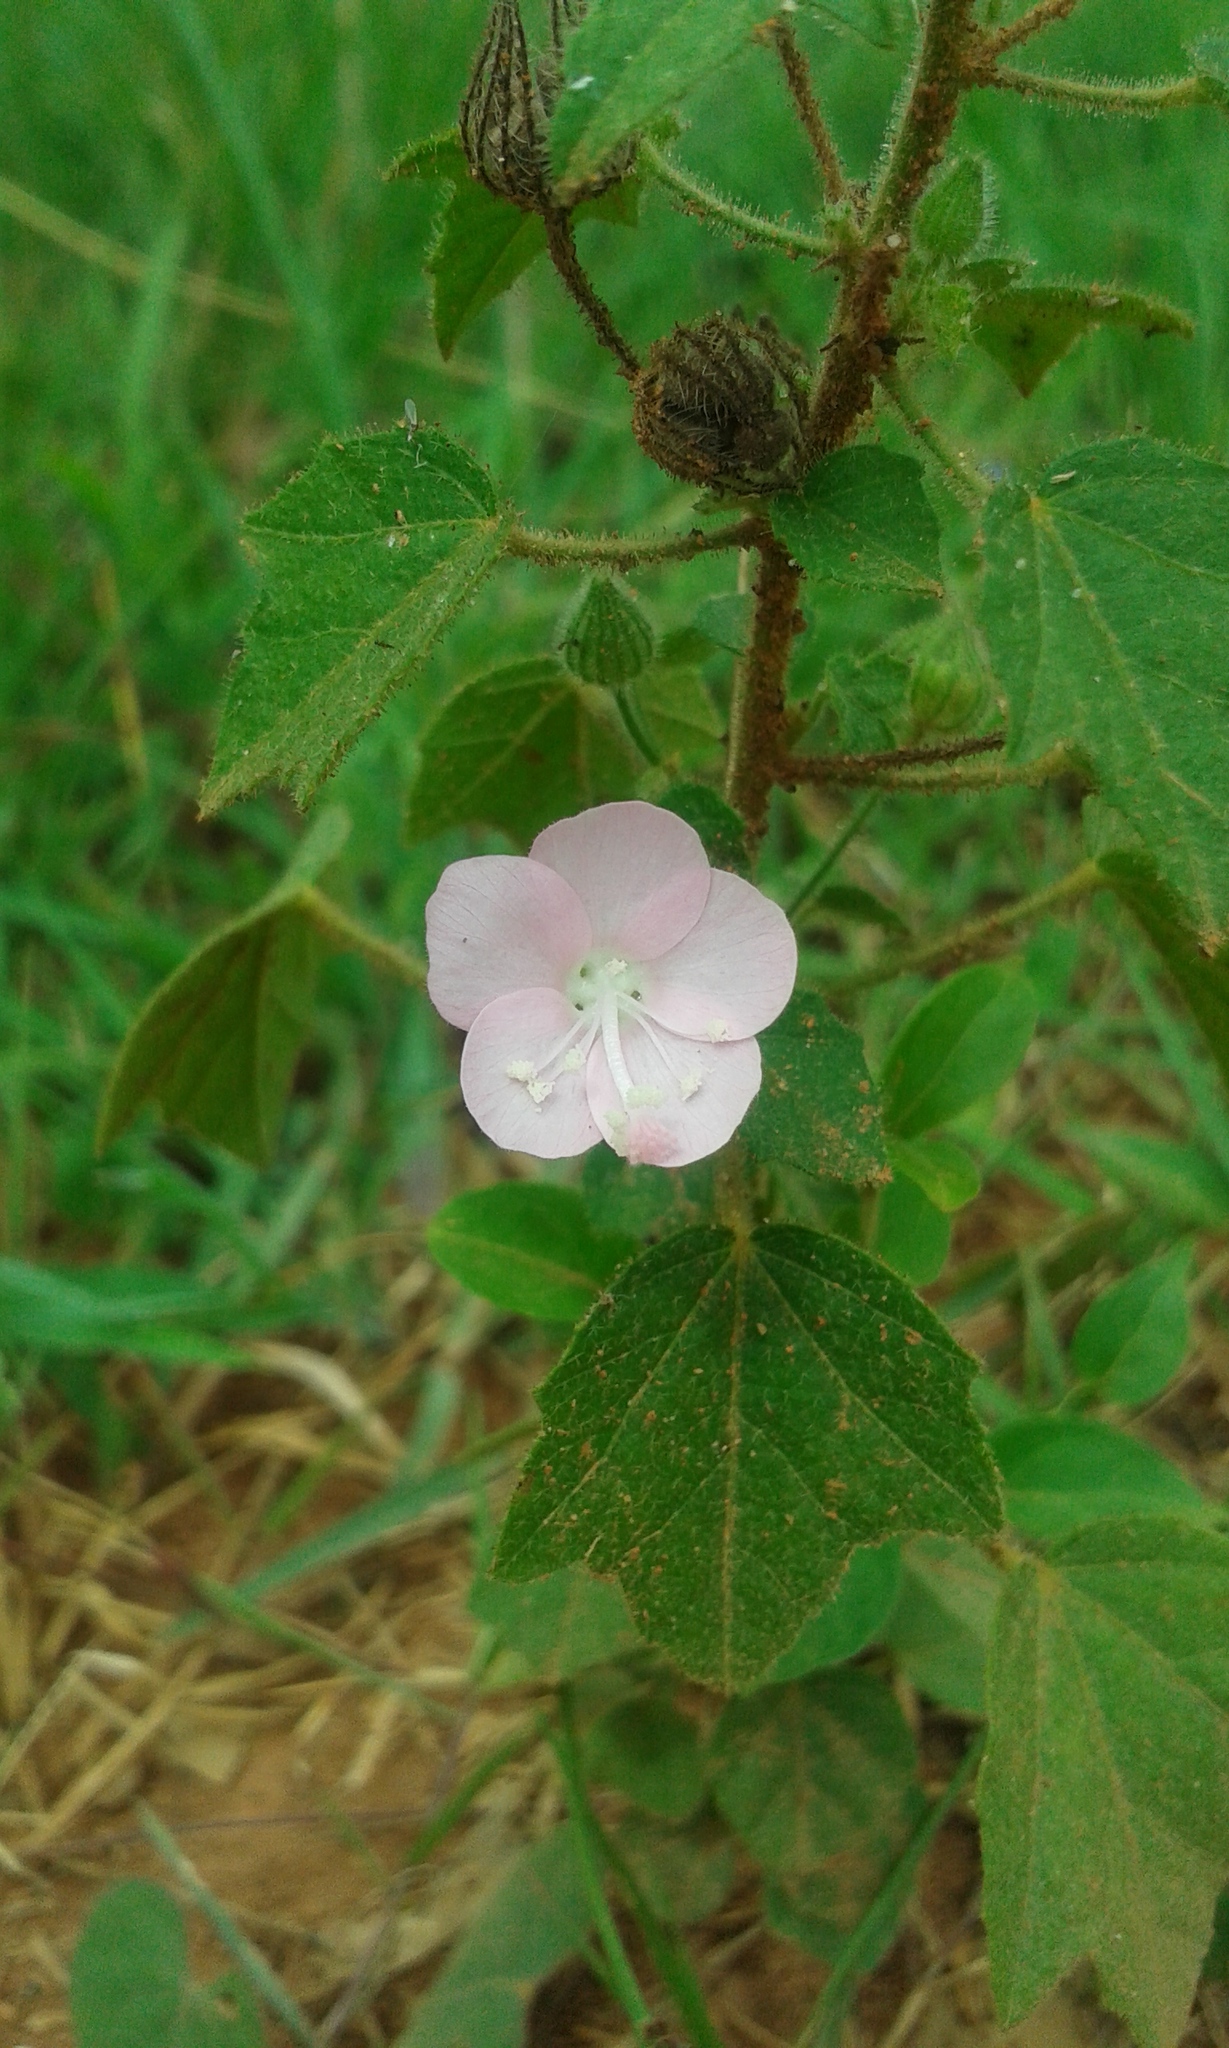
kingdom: Plantae
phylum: Tracheophyta
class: Magnoliopsida
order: Malvales
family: Malvaceae
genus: Pavonia
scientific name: Pavonia zeylanica
